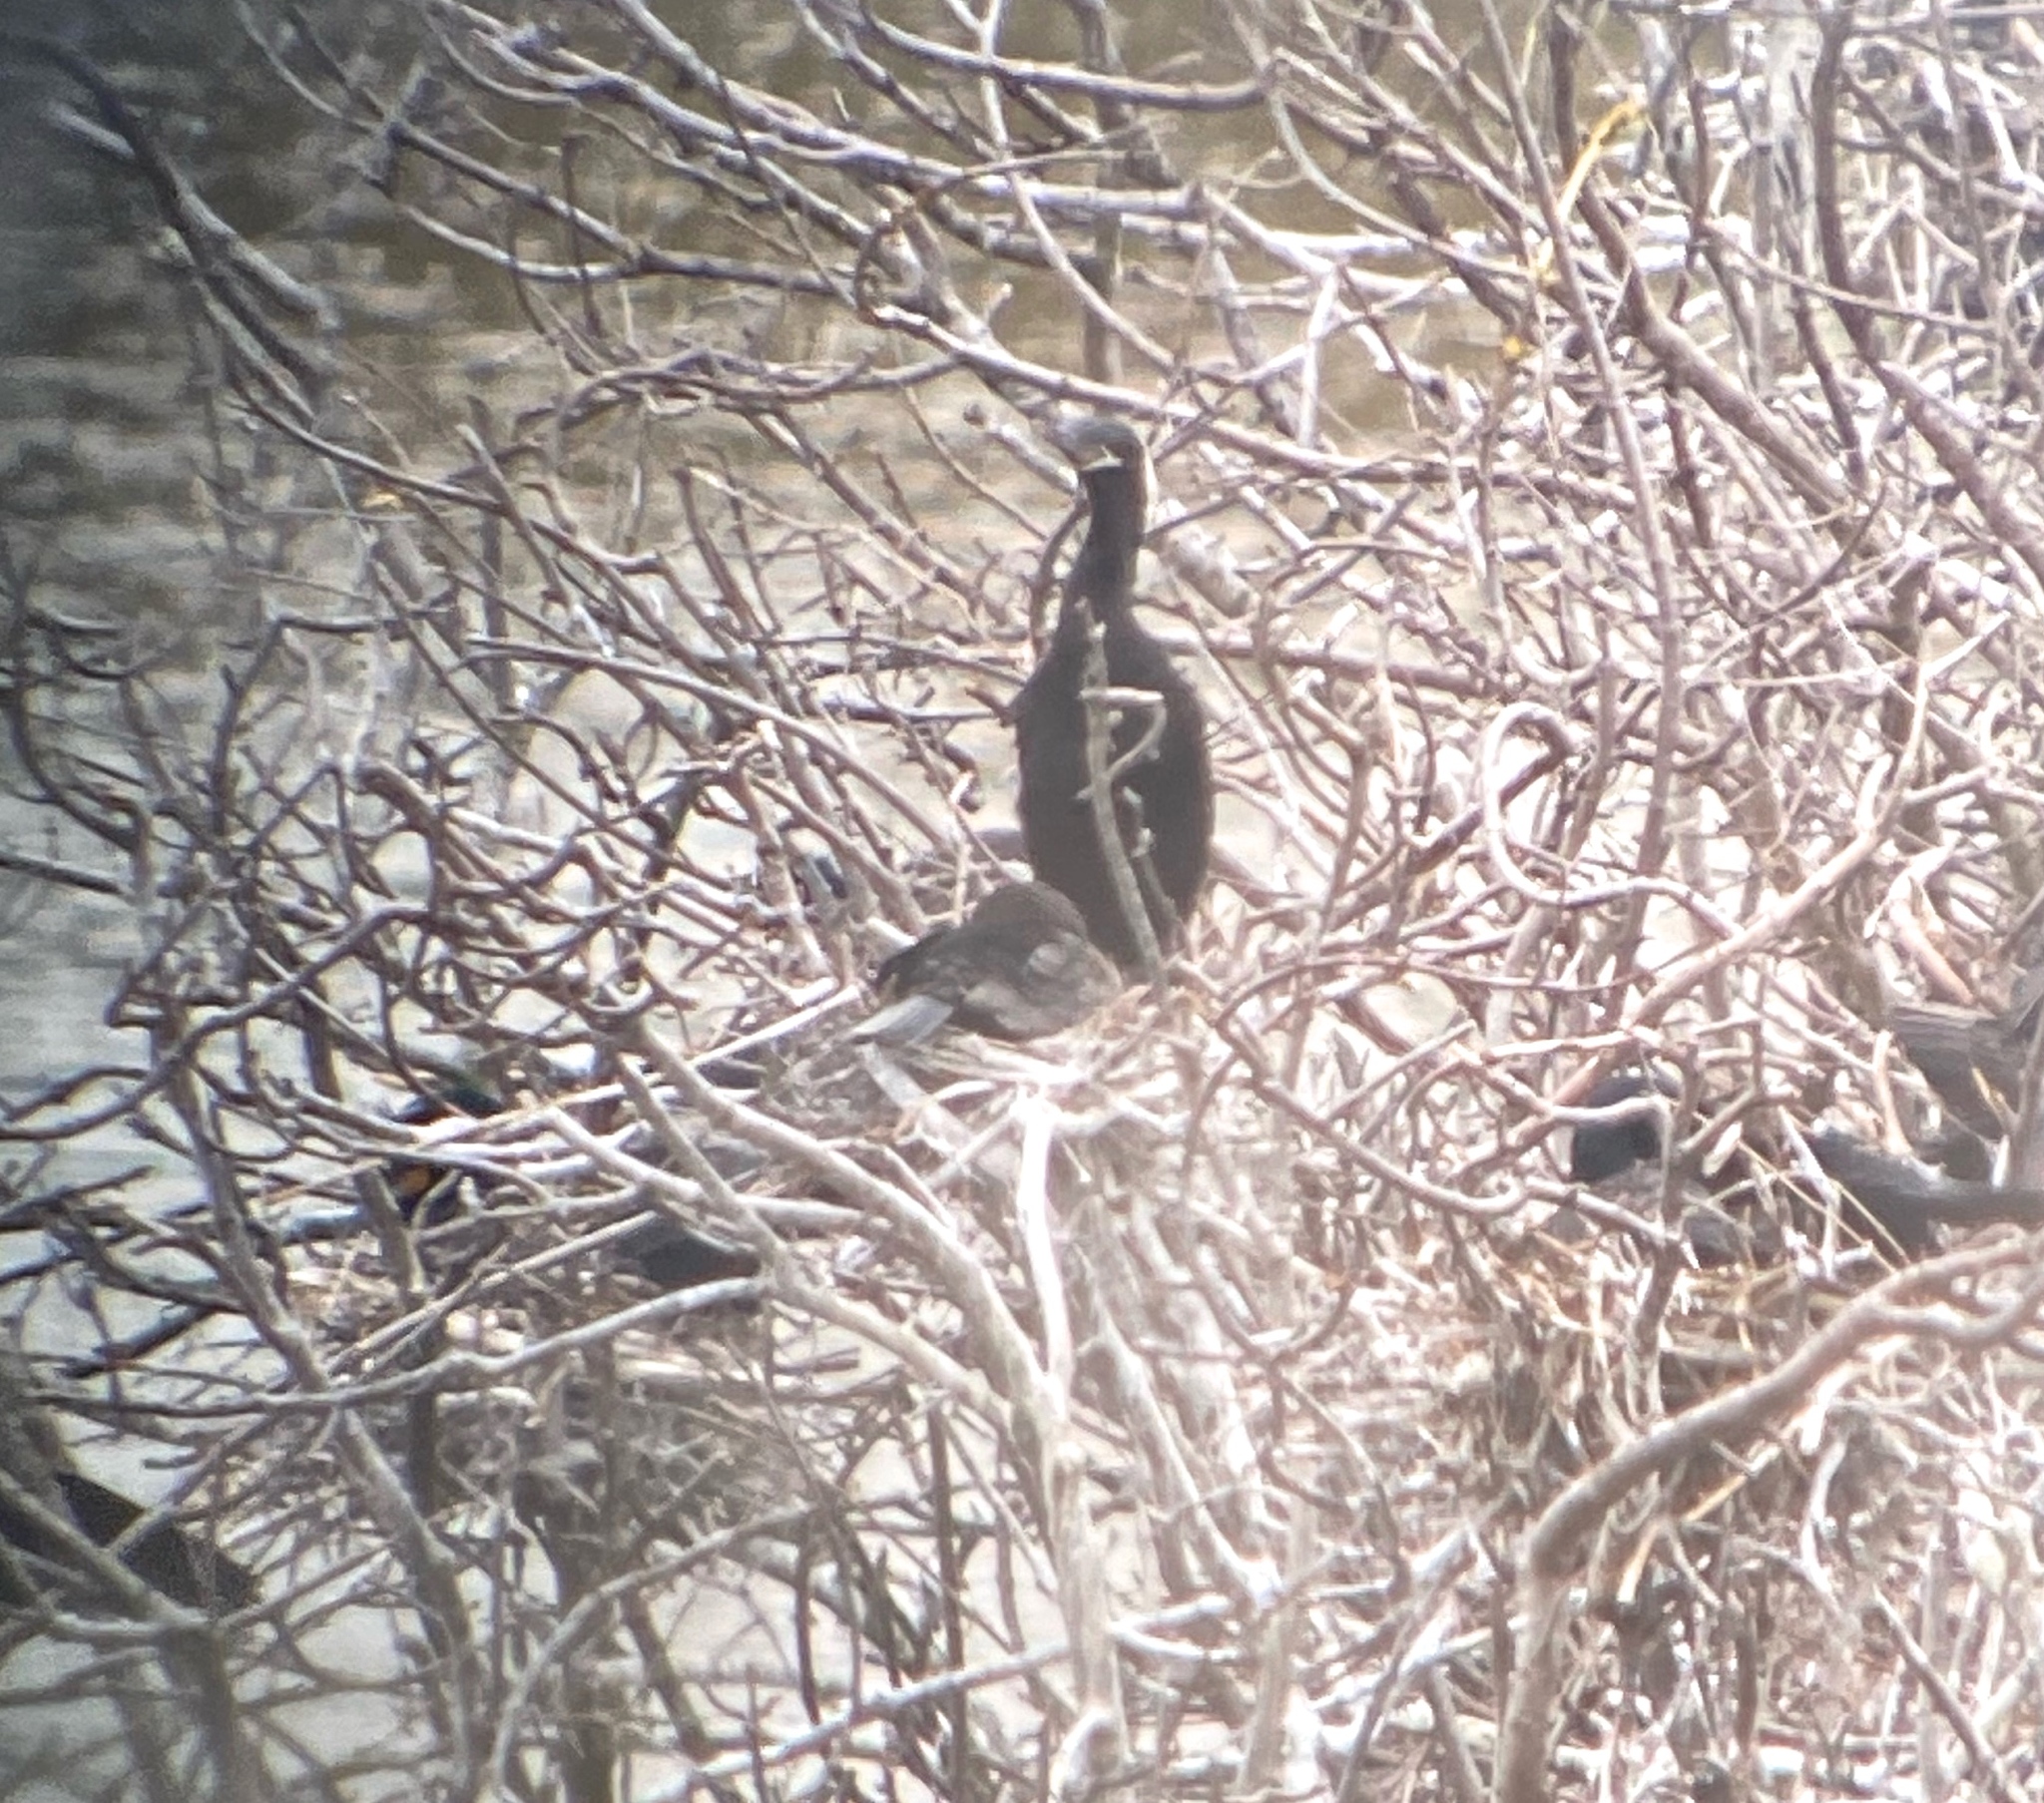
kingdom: Animalia
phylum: Chordata
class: Aves
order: Suliformes
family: Phalacrocoracidae
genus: Phalacrocorax
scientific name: Phalacrocorax brasilianus
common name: Neotropic cormorant
